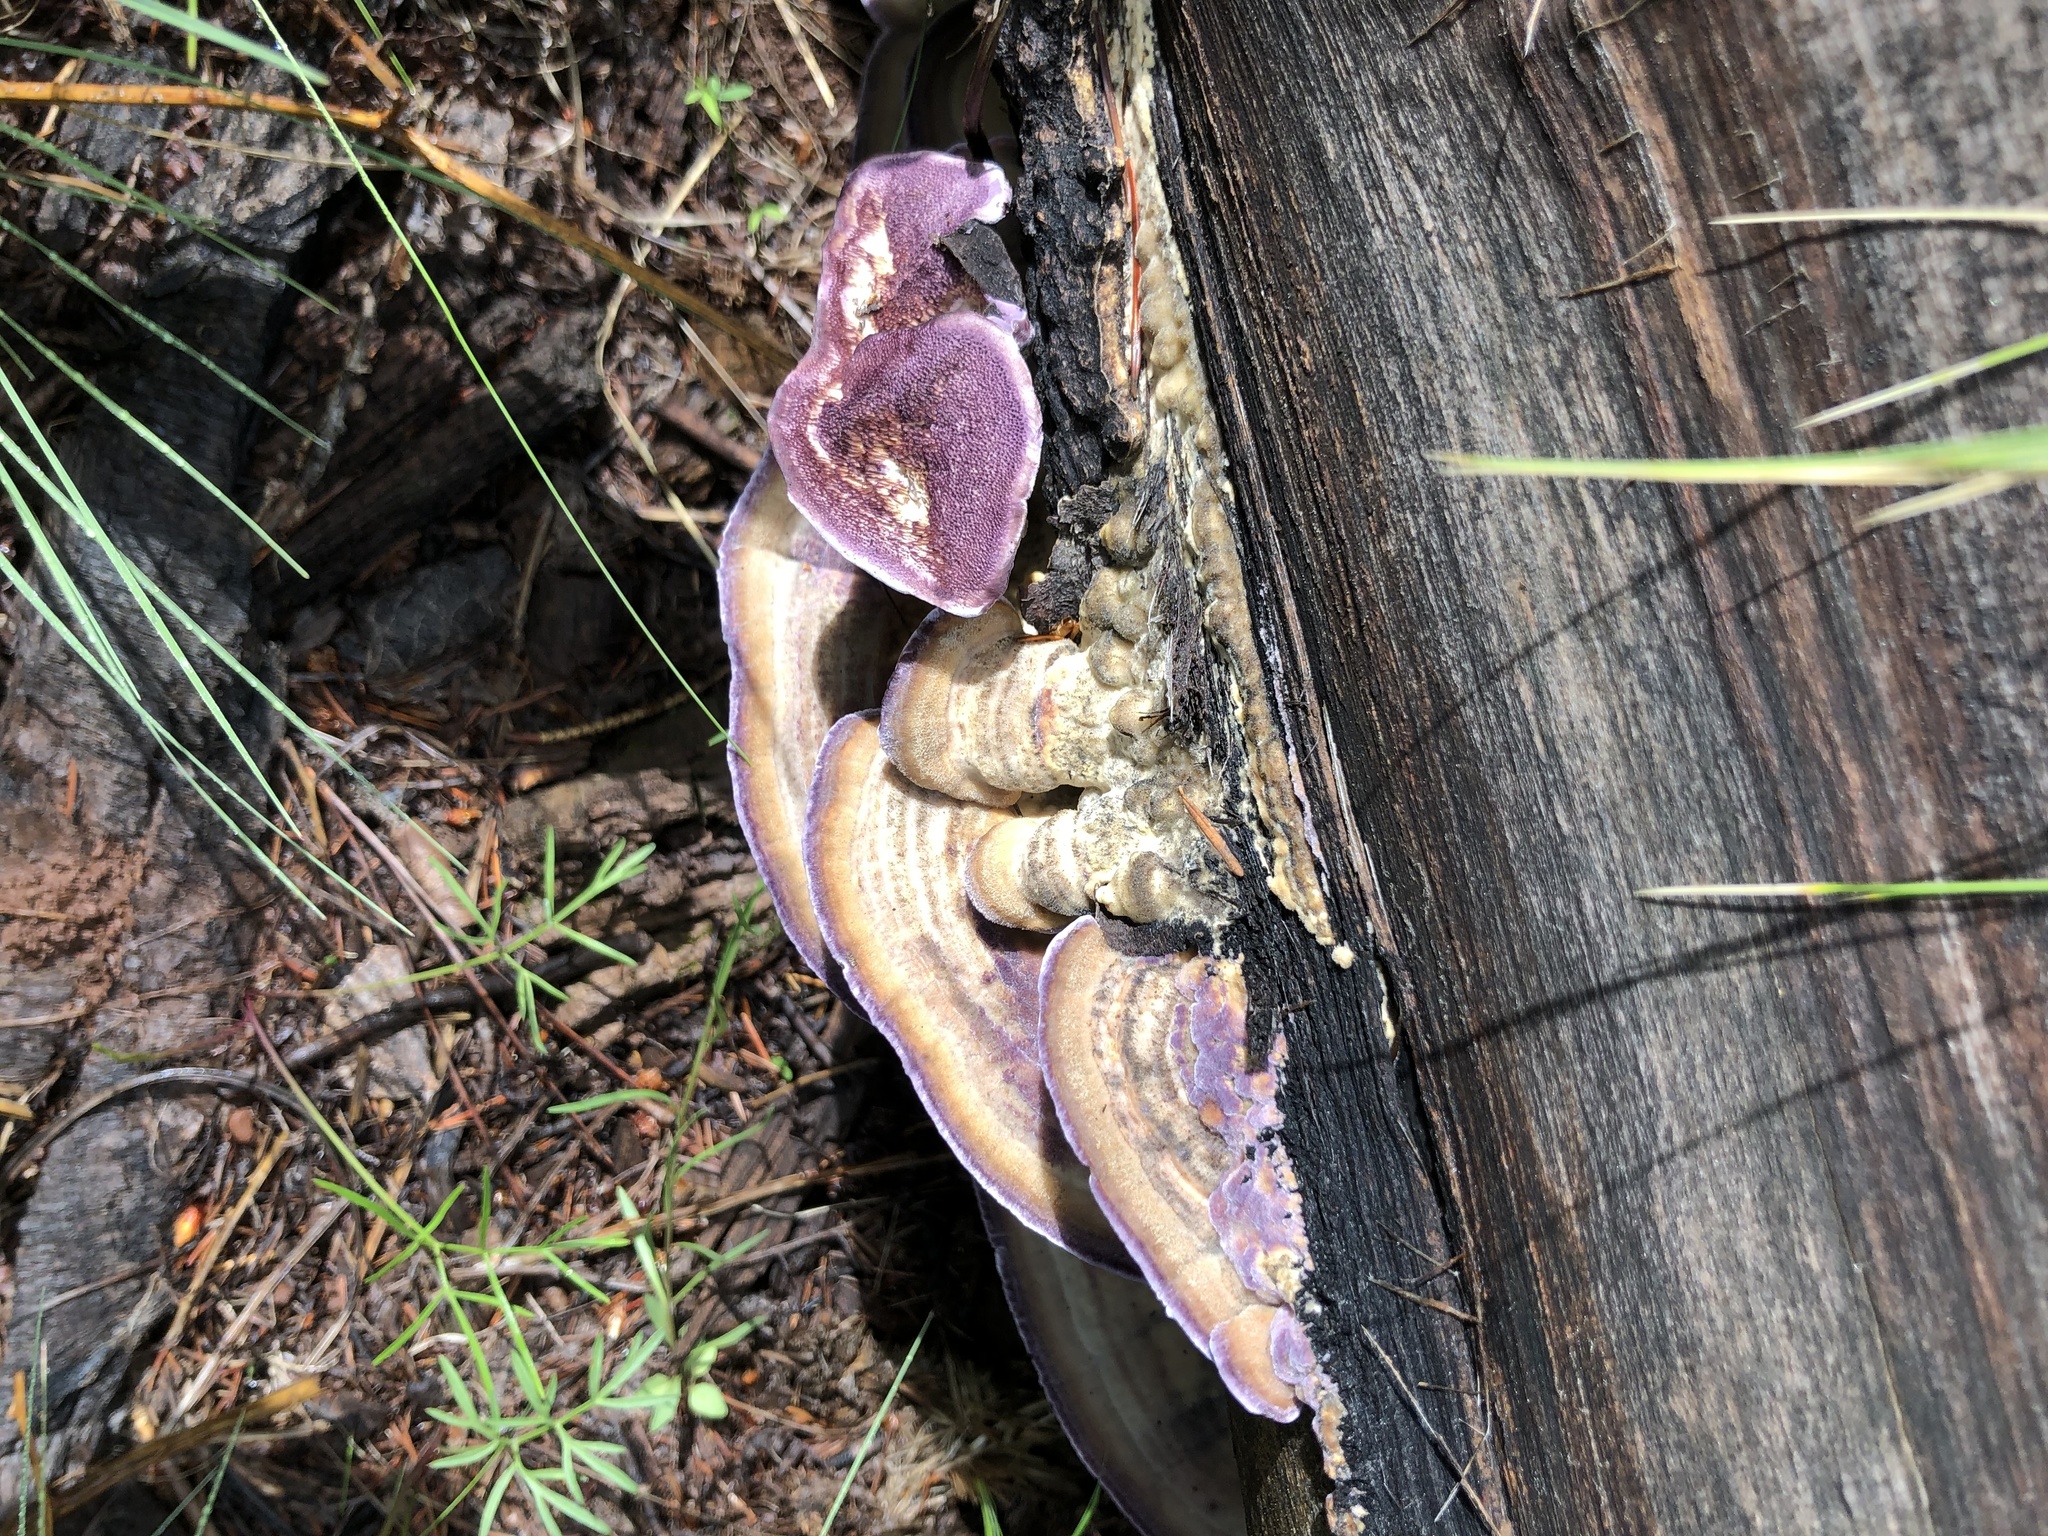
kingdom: Fungi
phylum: Basidiomycota
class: Agaricomycetes
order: Hymenochaetales
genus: Trichaptum
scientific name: Trichaptum subchartaceum
